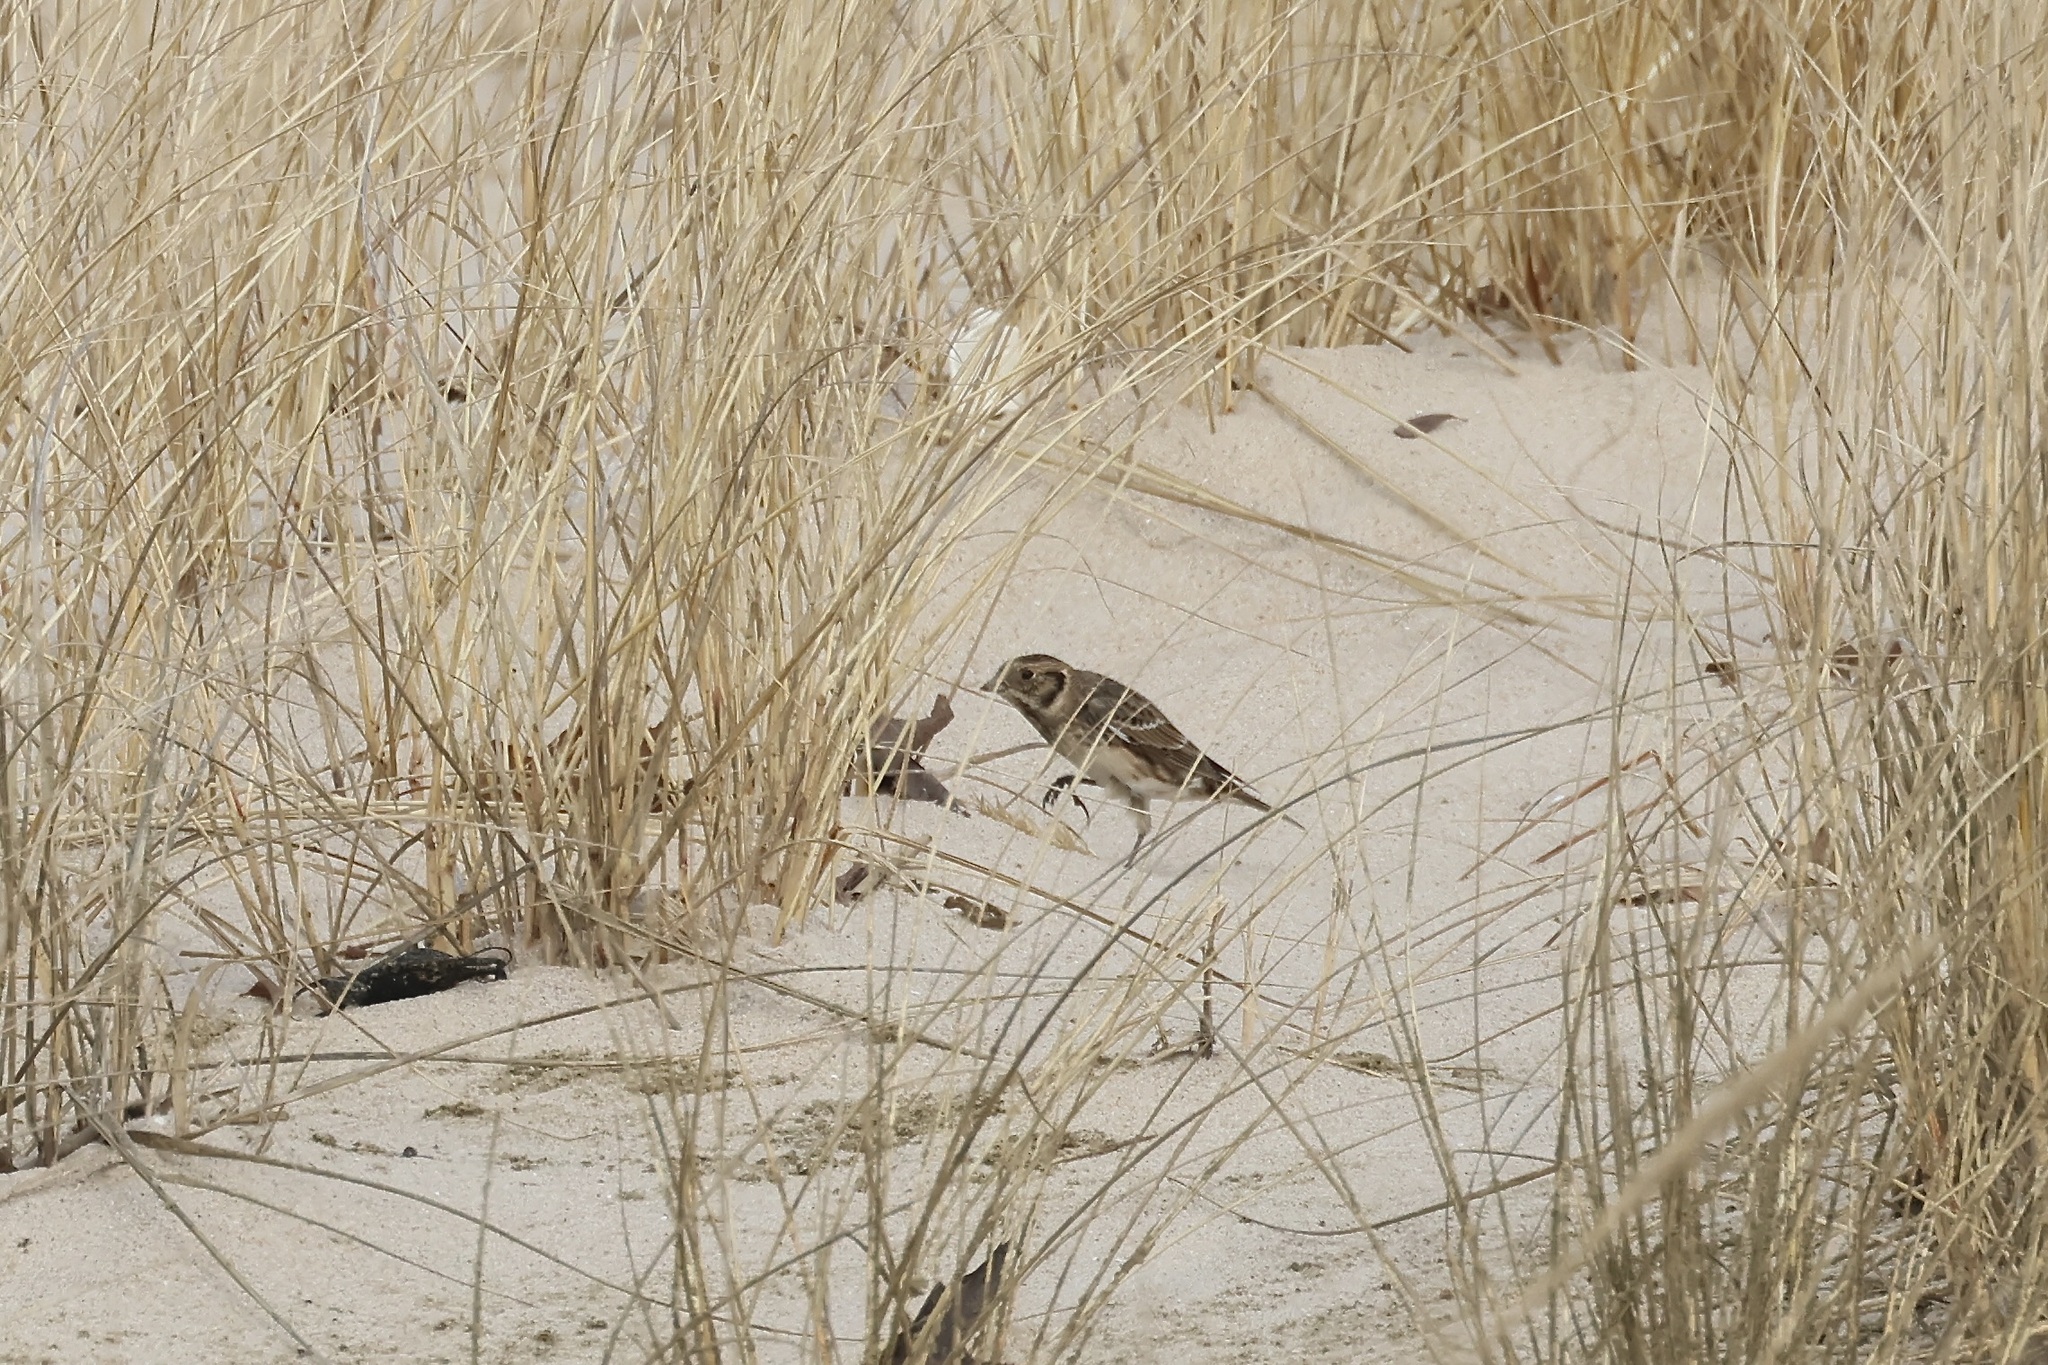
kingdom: Animalia
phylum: Chordata
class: Aves
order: Passeriformes
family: Calcariidae
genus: Calcarius
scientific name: Calcarius lapponicus
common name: Lapland longspur
